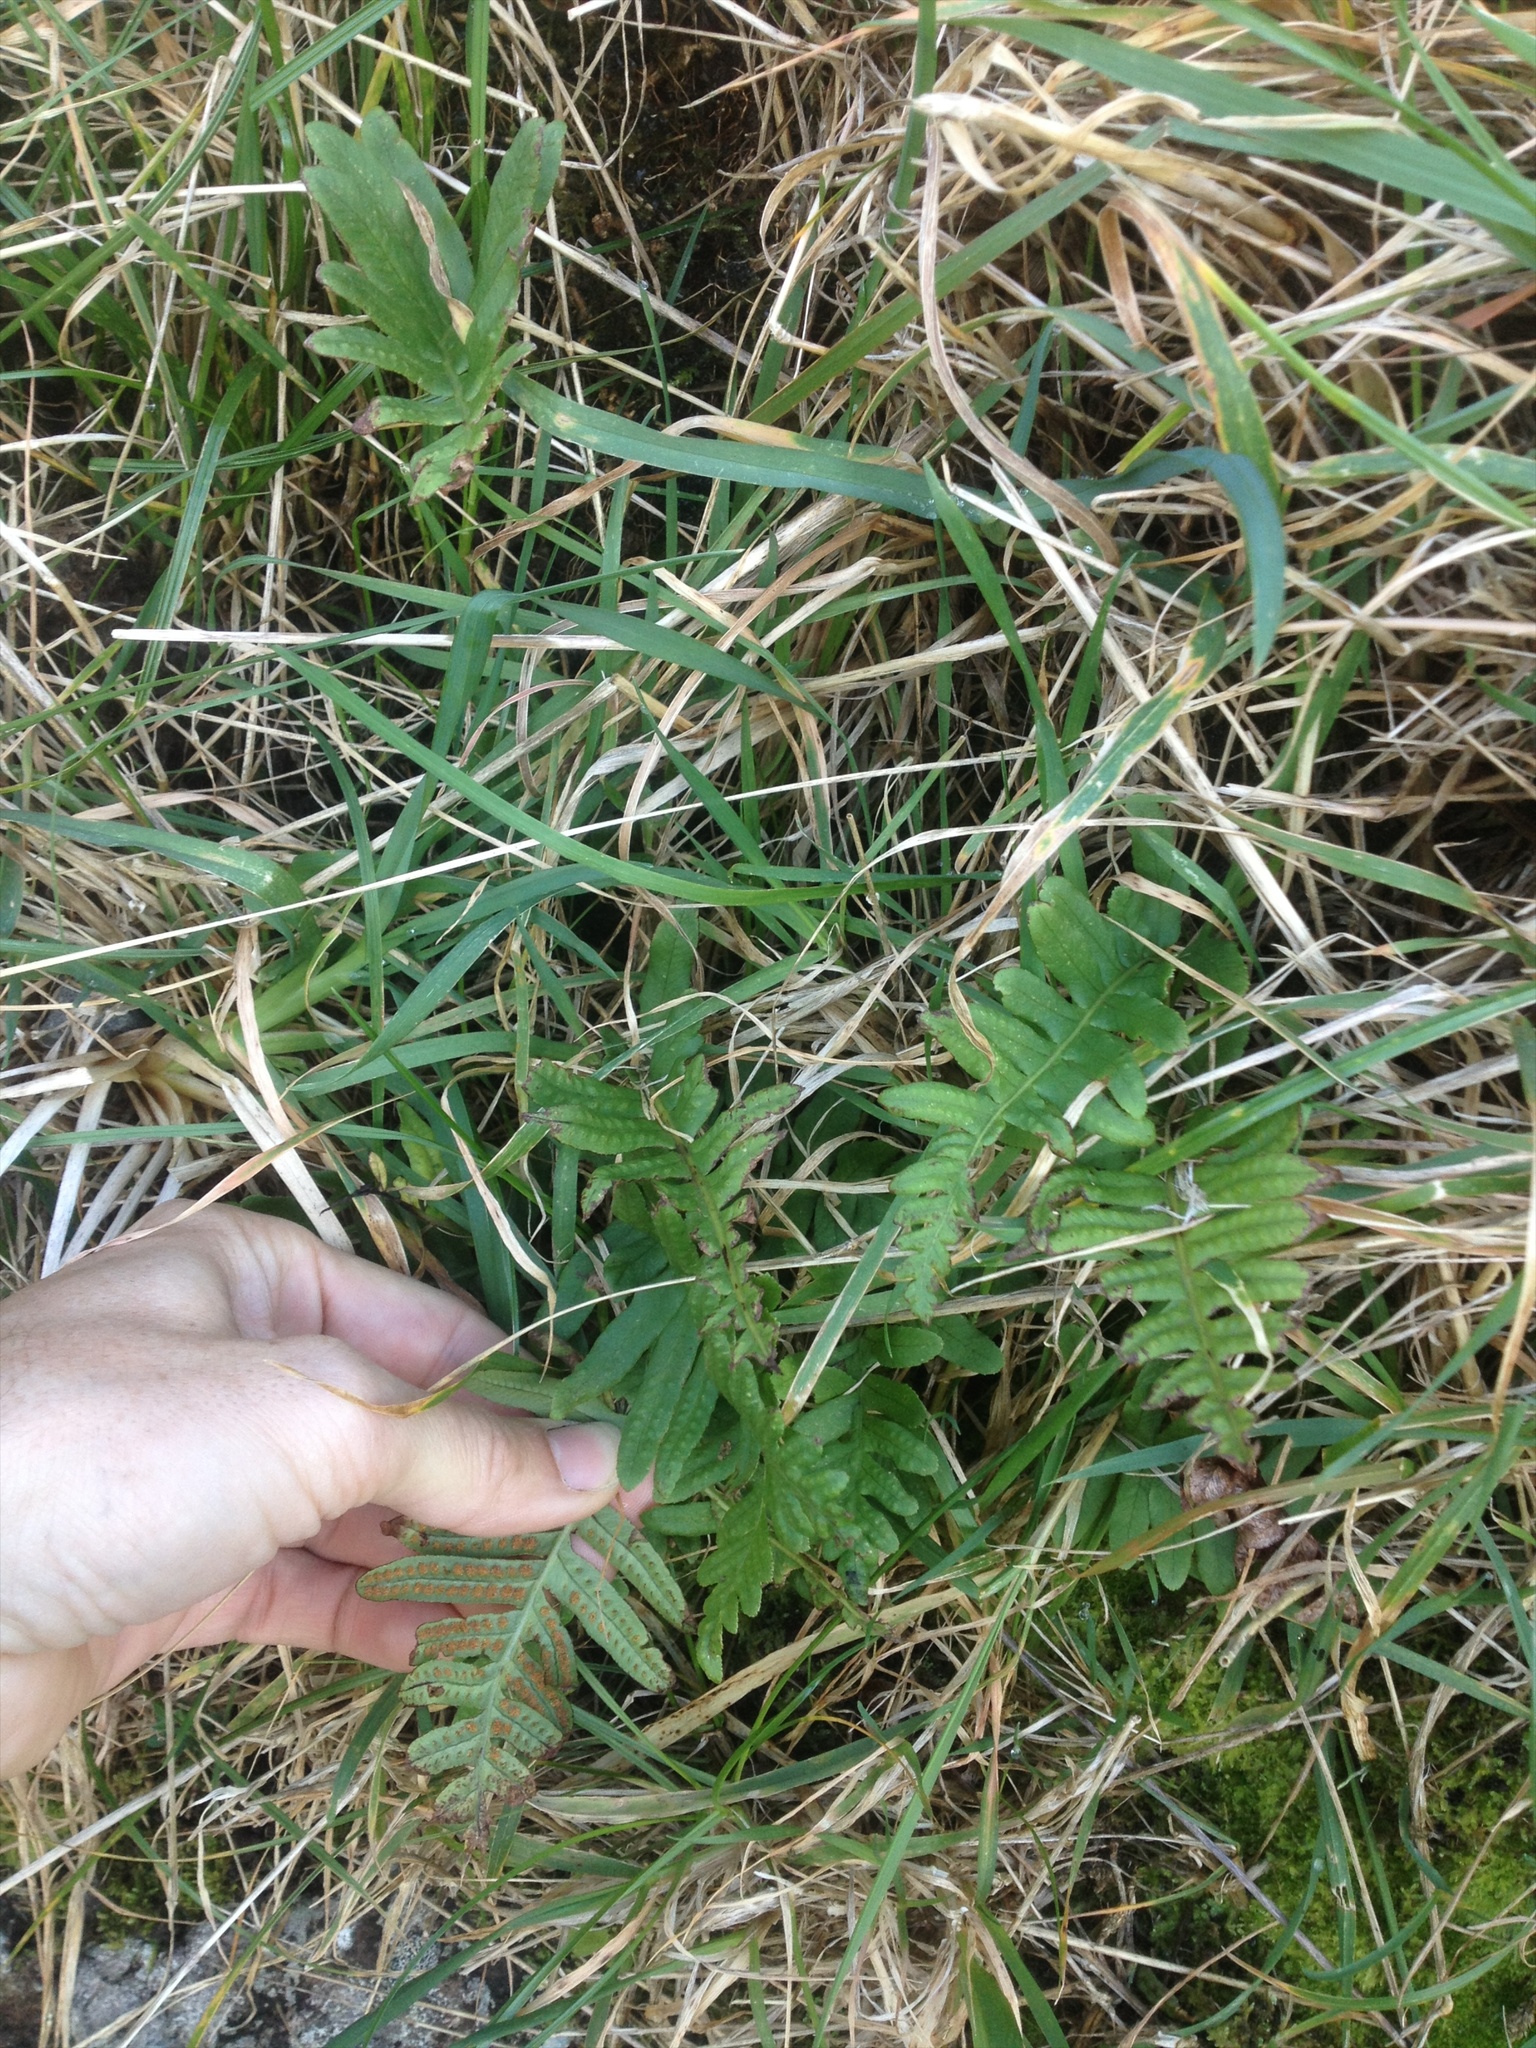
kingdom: Plantae
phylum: Tracheophyta
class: Polypodiopsida
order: Polypodiales
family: Polypodiaceae
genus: Polypodium
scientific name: Polypodium vulgare
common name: Common polypody
